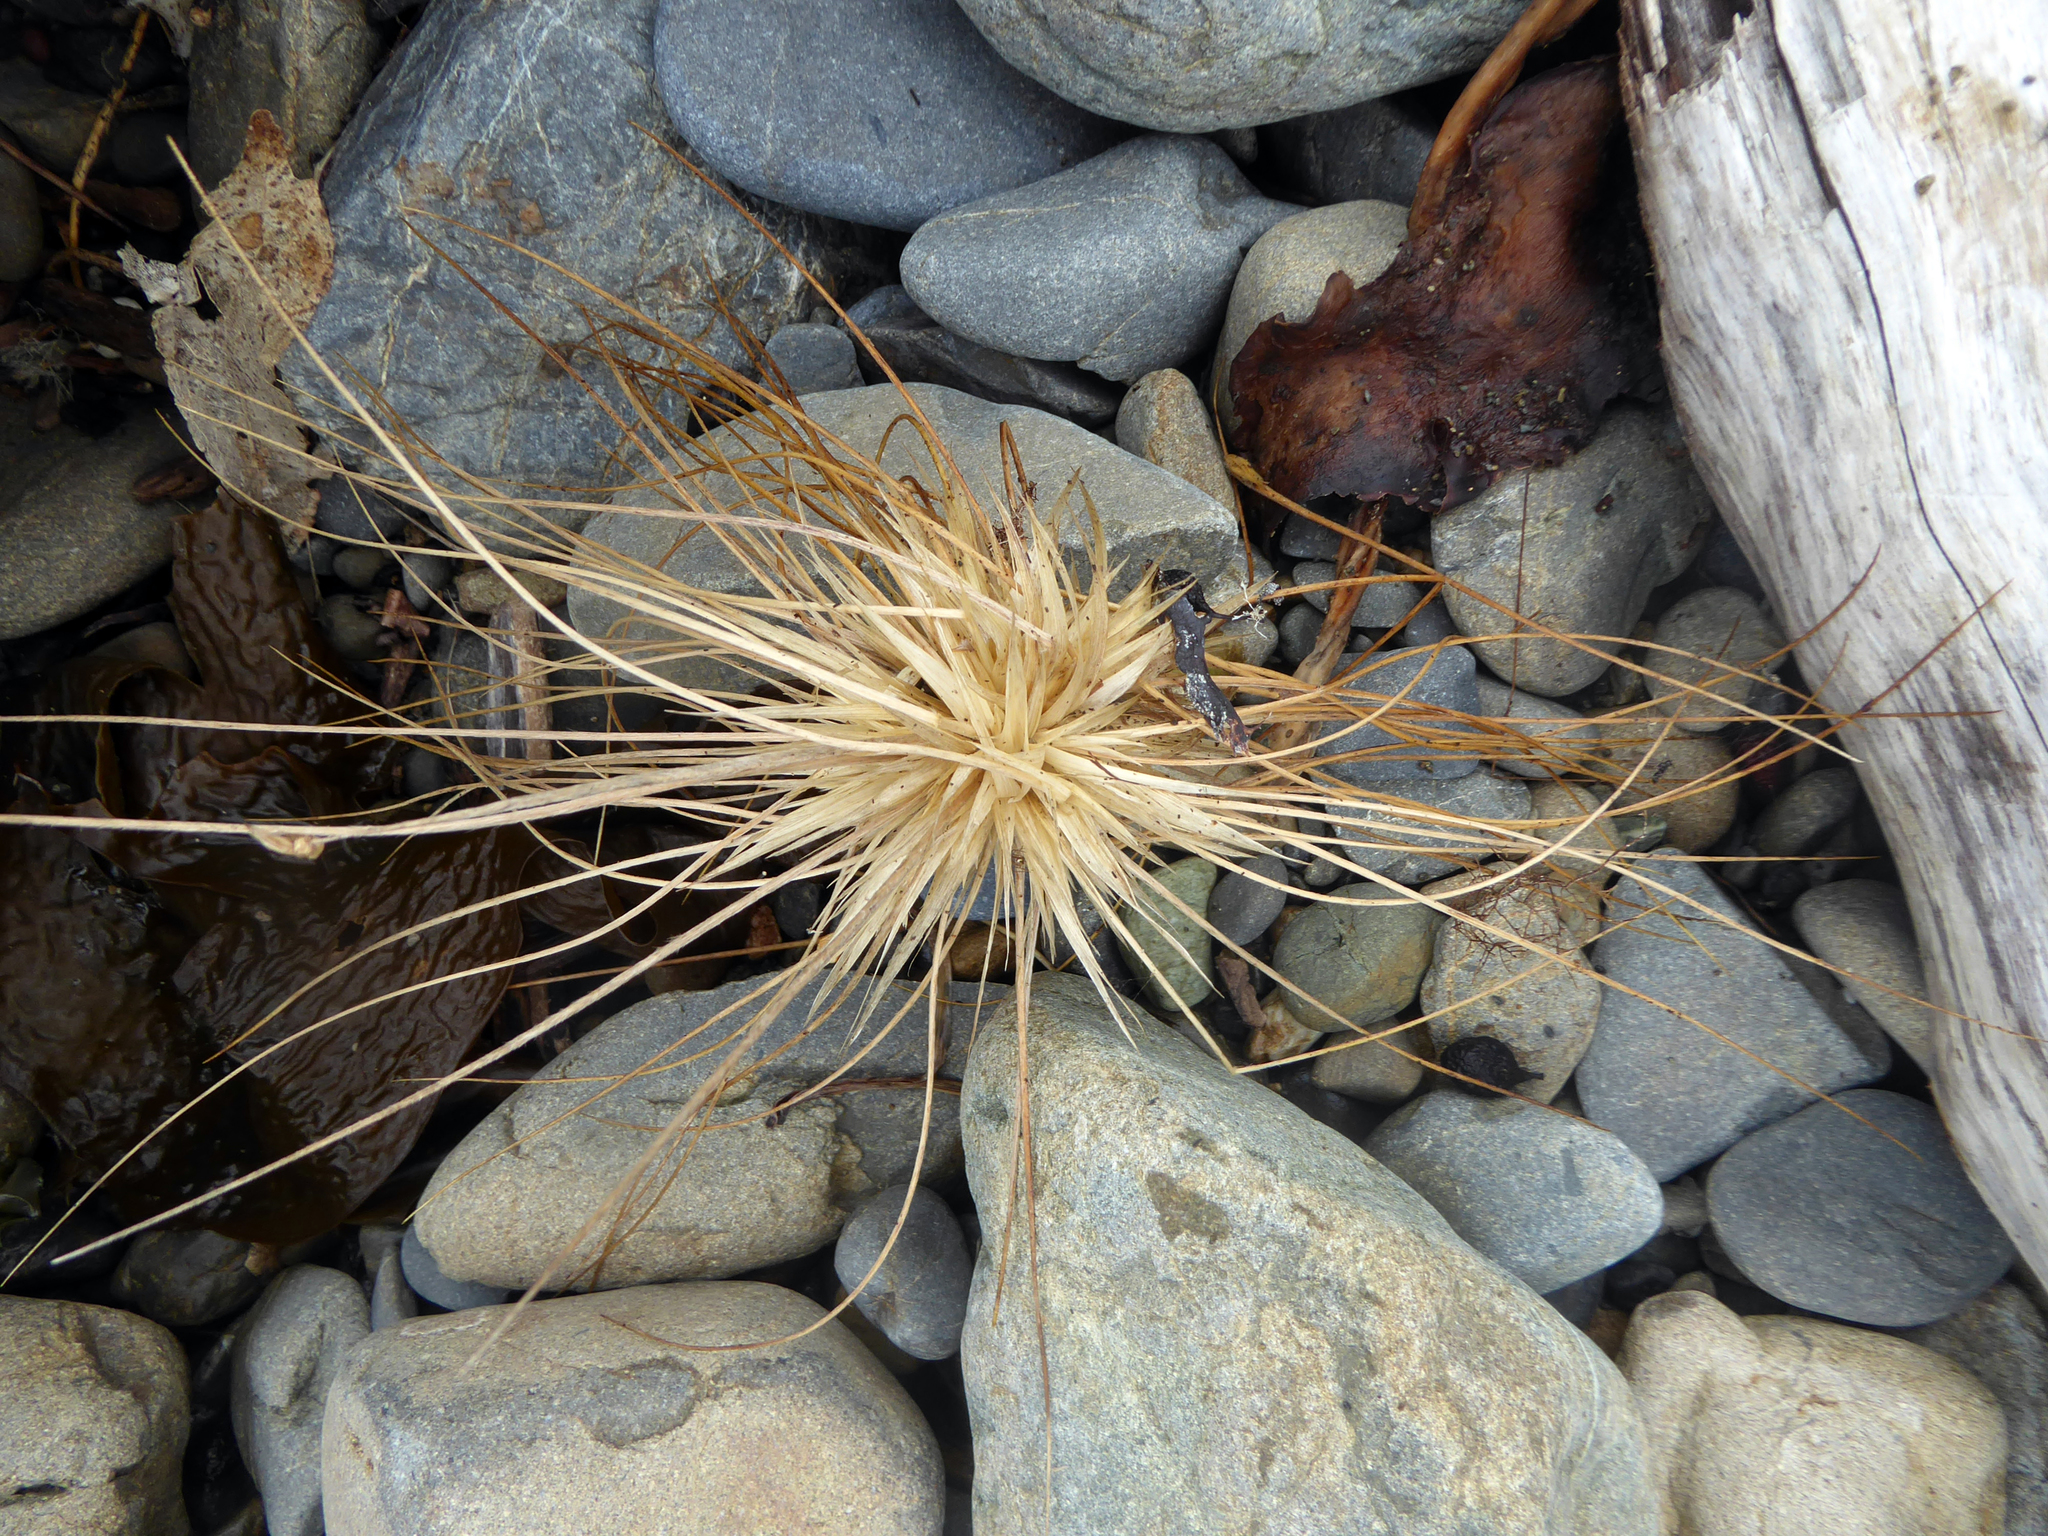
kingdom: Plantae
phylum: Tracheophyta
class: Liliopsida
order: Poales
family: Poaceae
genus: Spinifex
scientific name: Spinifex sericeus
